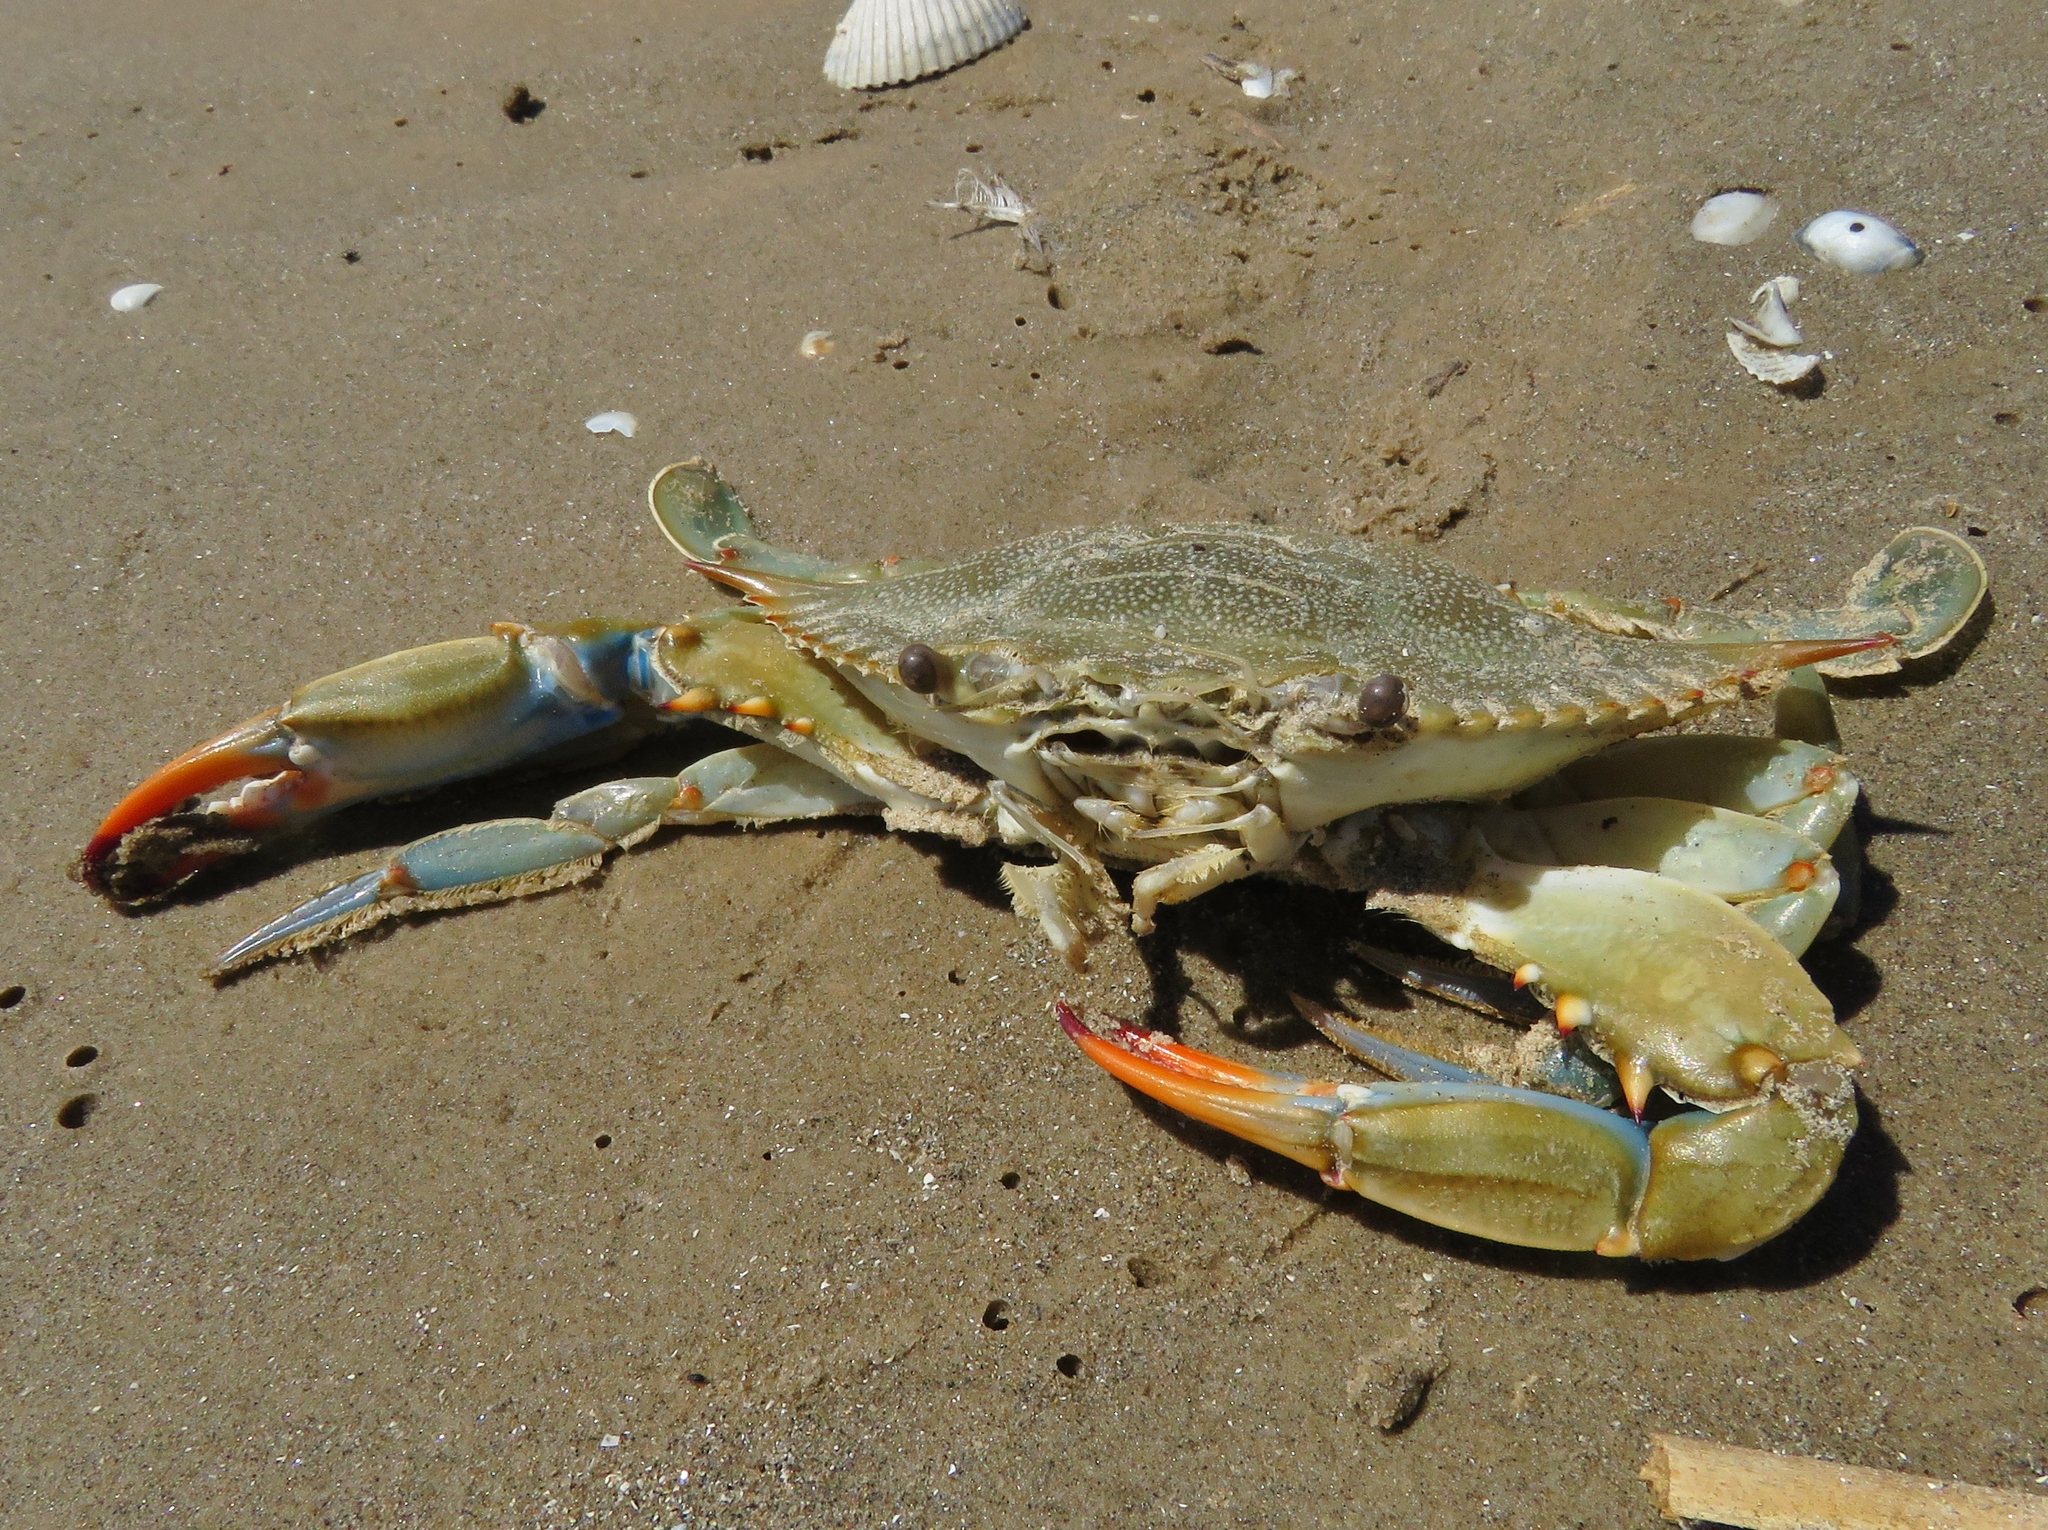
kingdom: Animalia
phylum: Arthropoda
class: Malacostraca
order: Decapoda
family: Portunidae
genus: Callinectes
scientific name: Callinectes sapidus
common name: Blue crab
